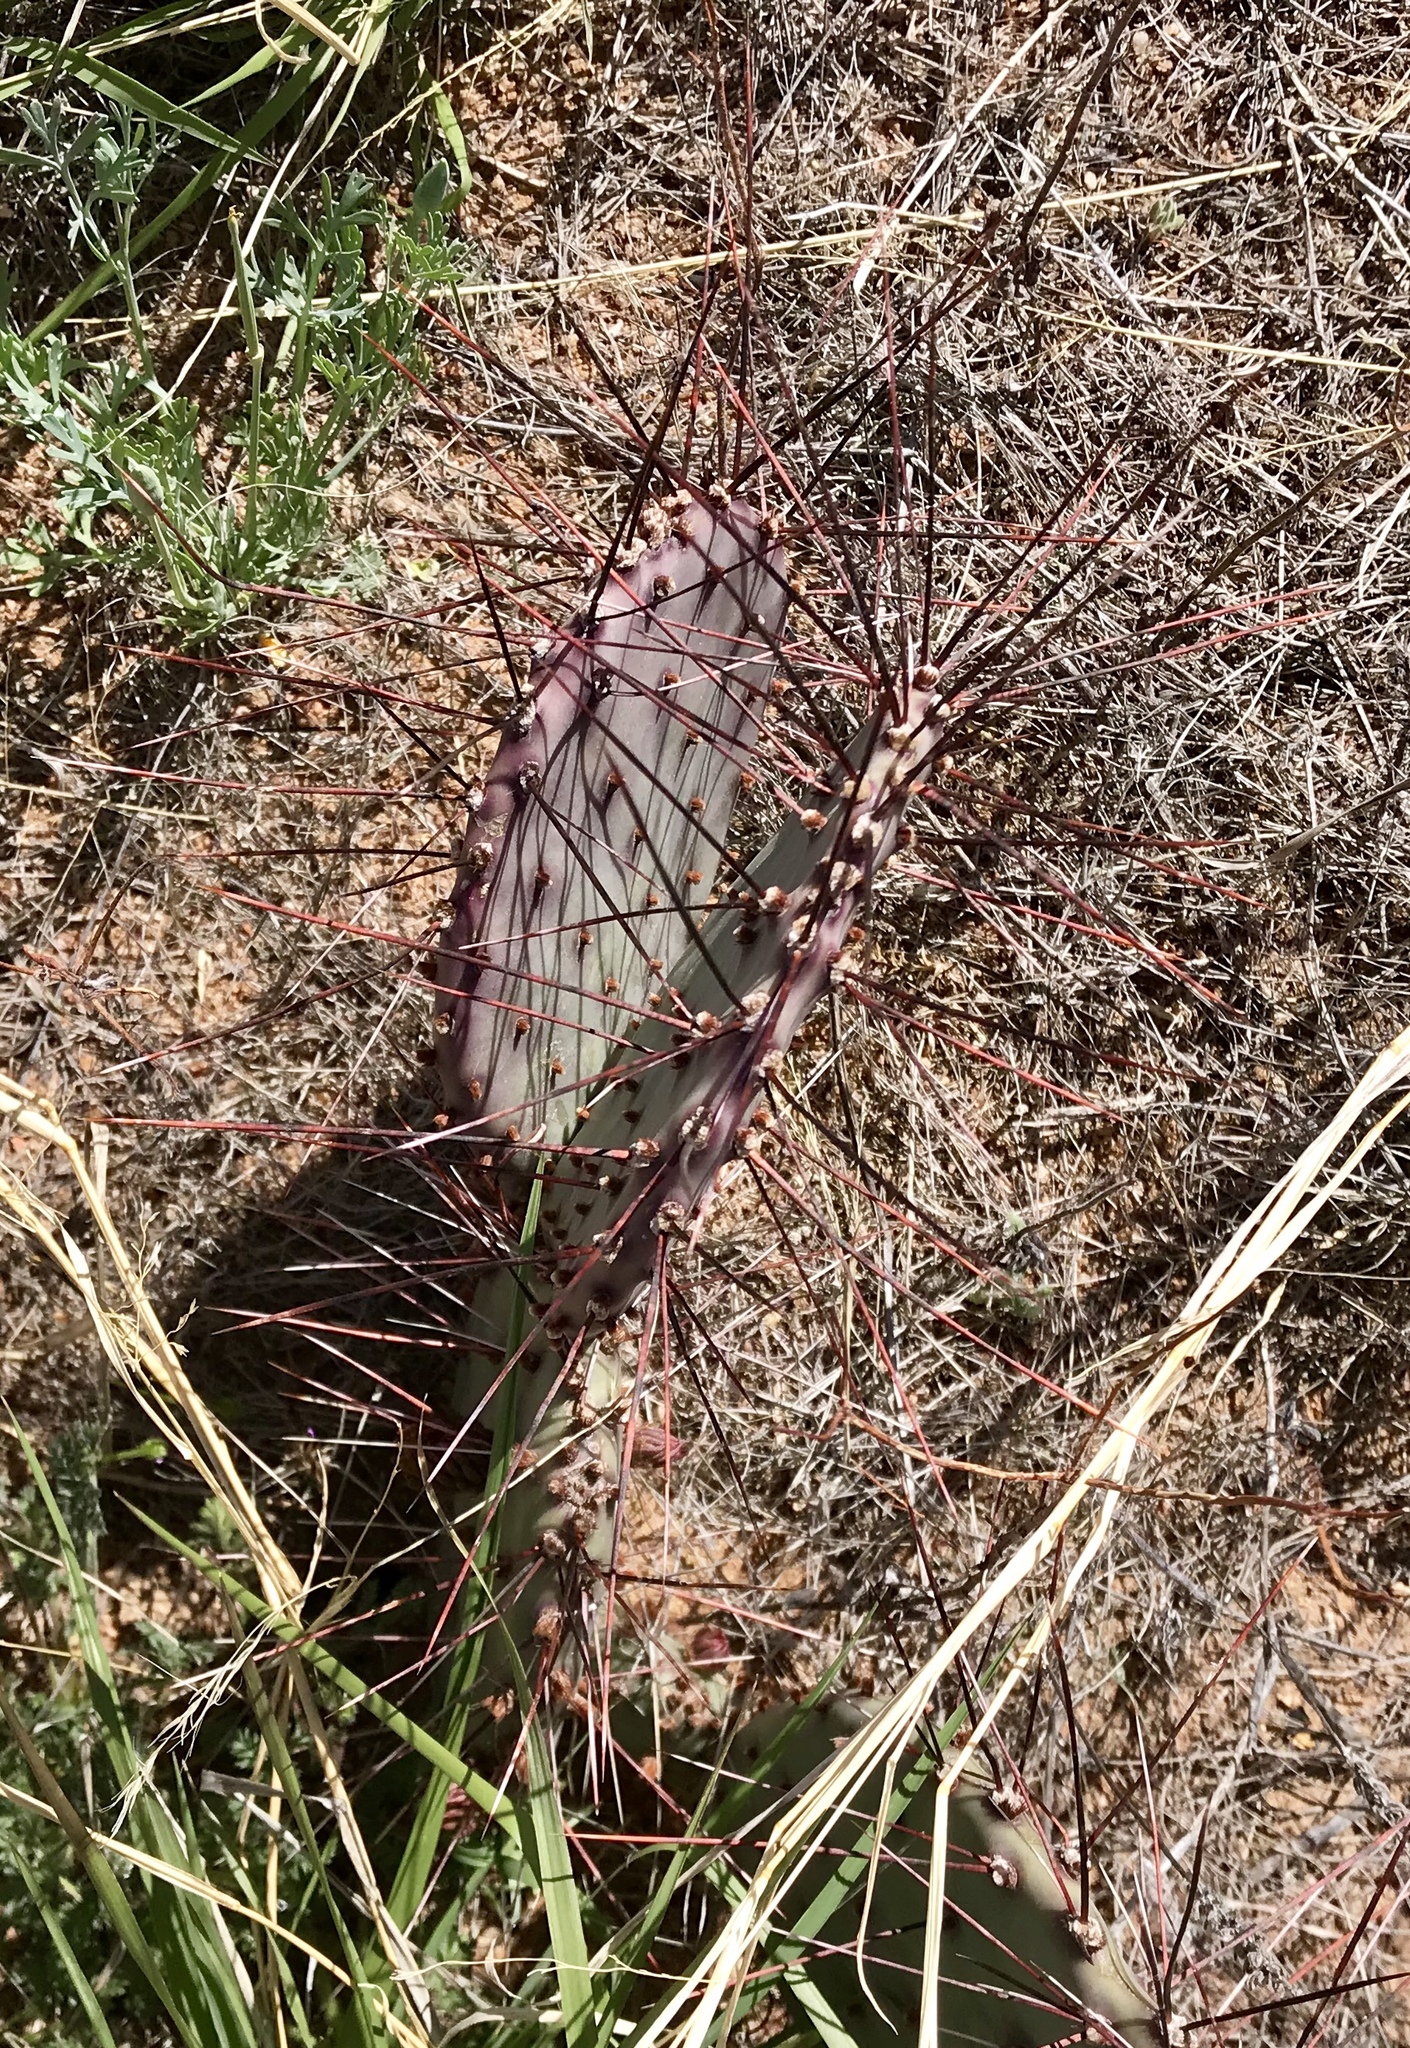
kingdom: Plantae
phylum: Tracheophyta
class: Magnoliopsida
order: Caryophyllales
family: Cactaceae
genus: Opuntia
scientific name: Opuntia macrocentra
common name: Purple prickly-pear
